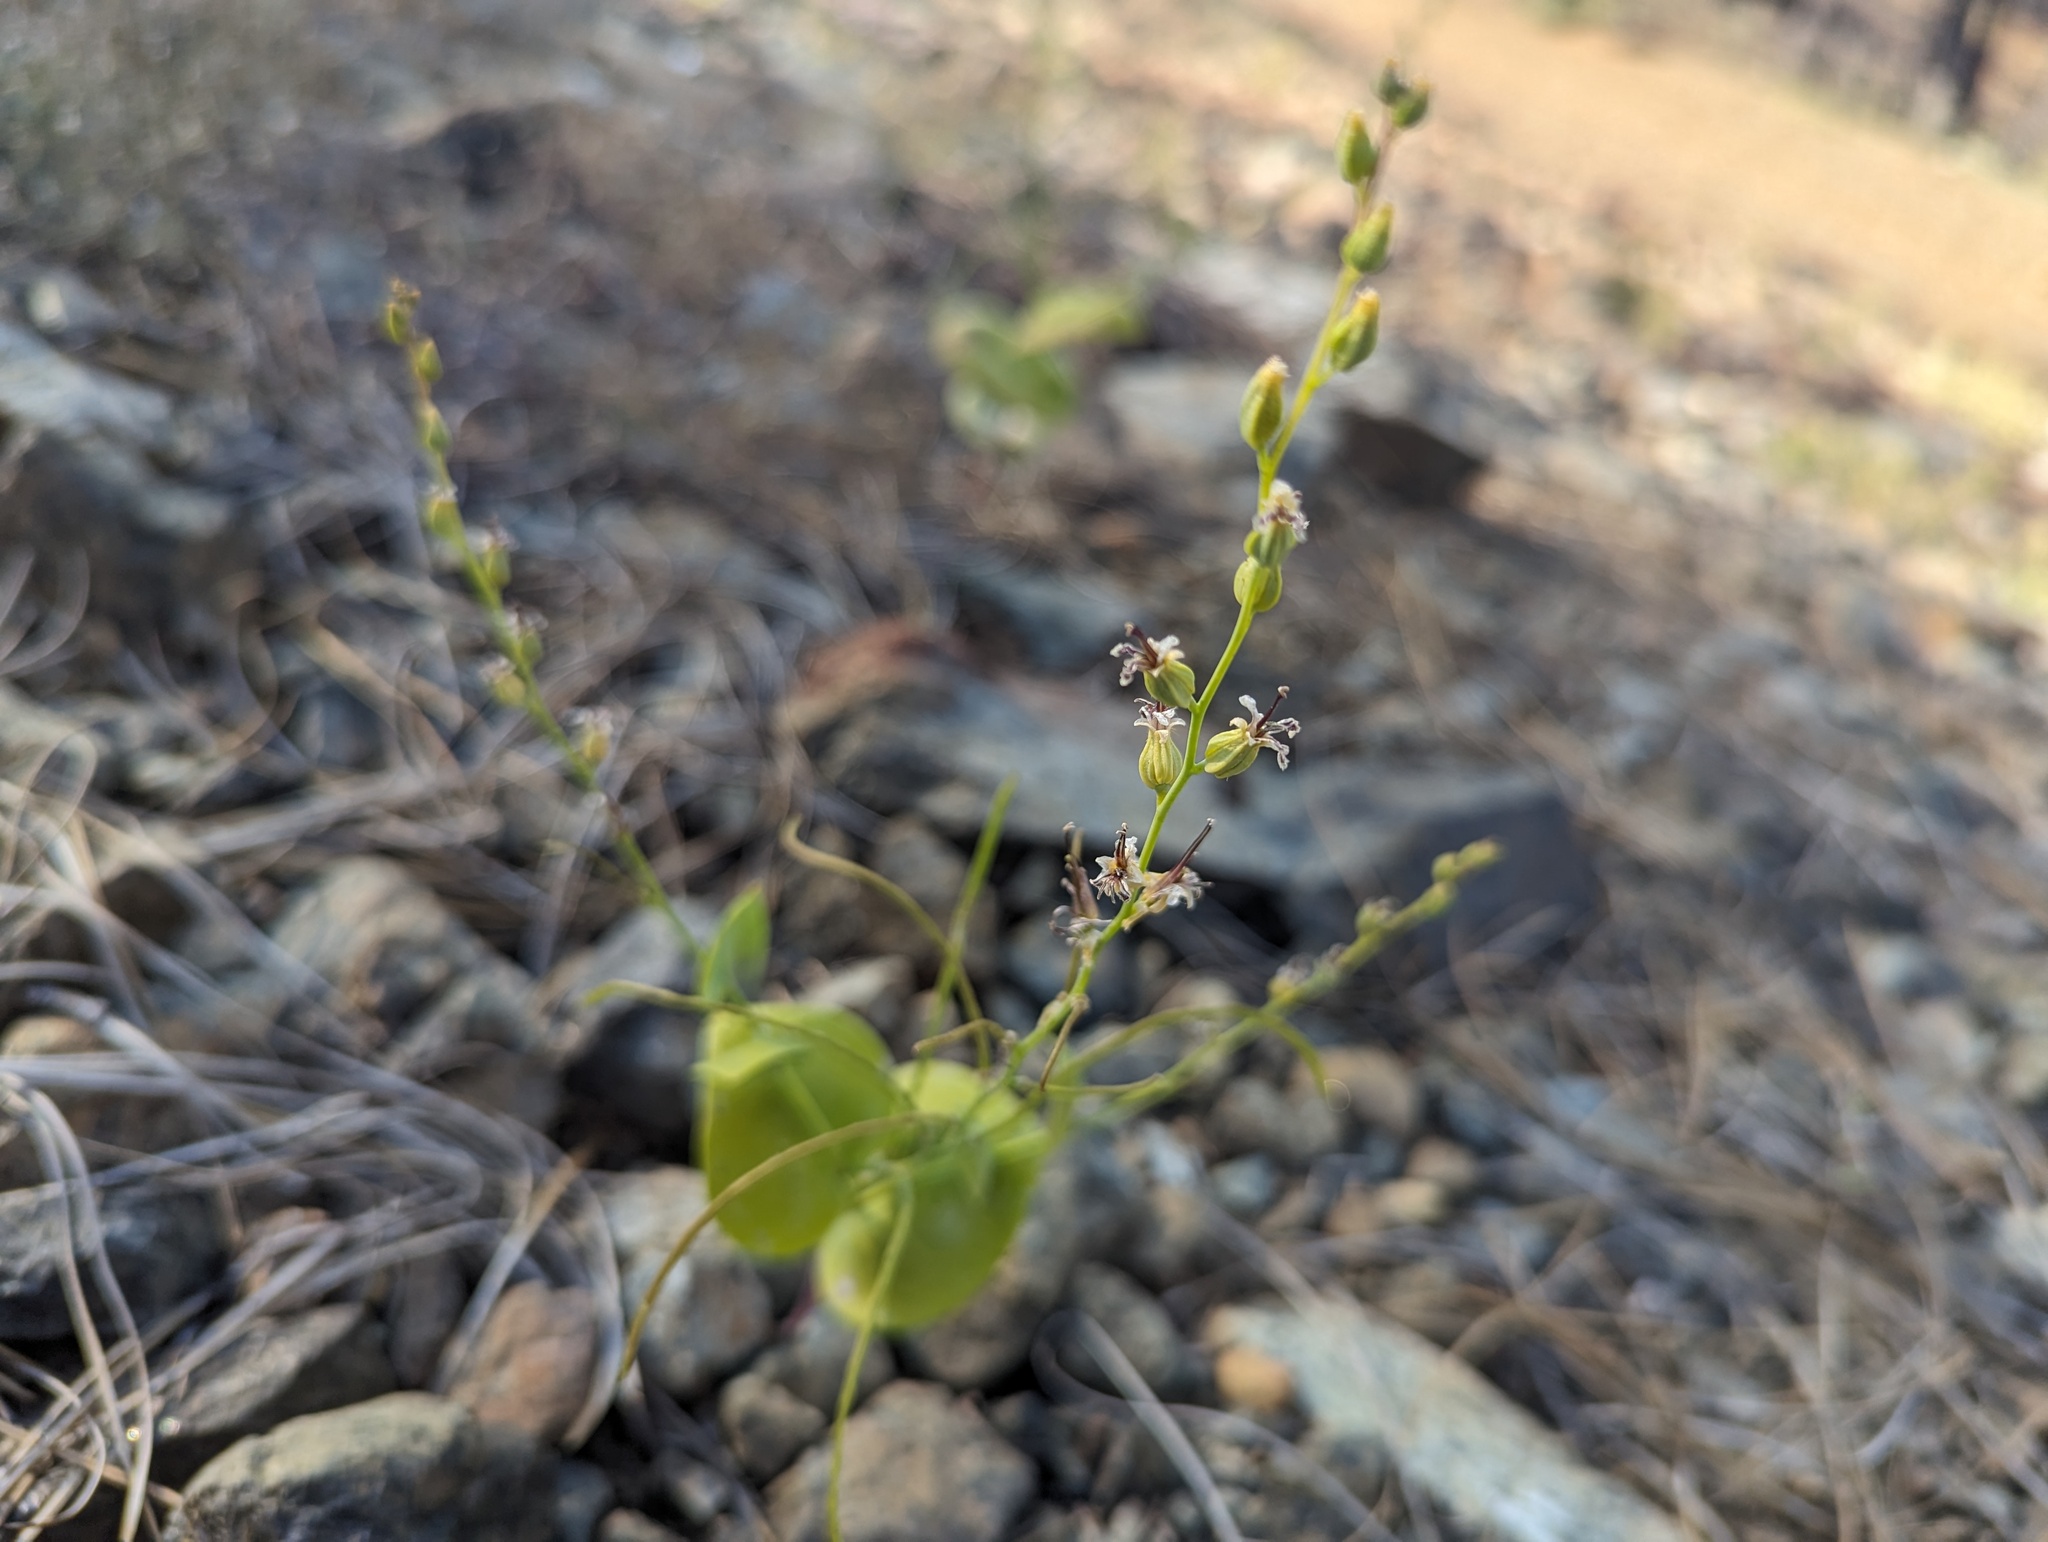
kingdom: Plantae
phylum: Tracheophyta
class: Magnoliopsida
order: Brassicales
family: Brassicaceae
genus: Streptanthus
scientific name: Streptanthus drepanoides
